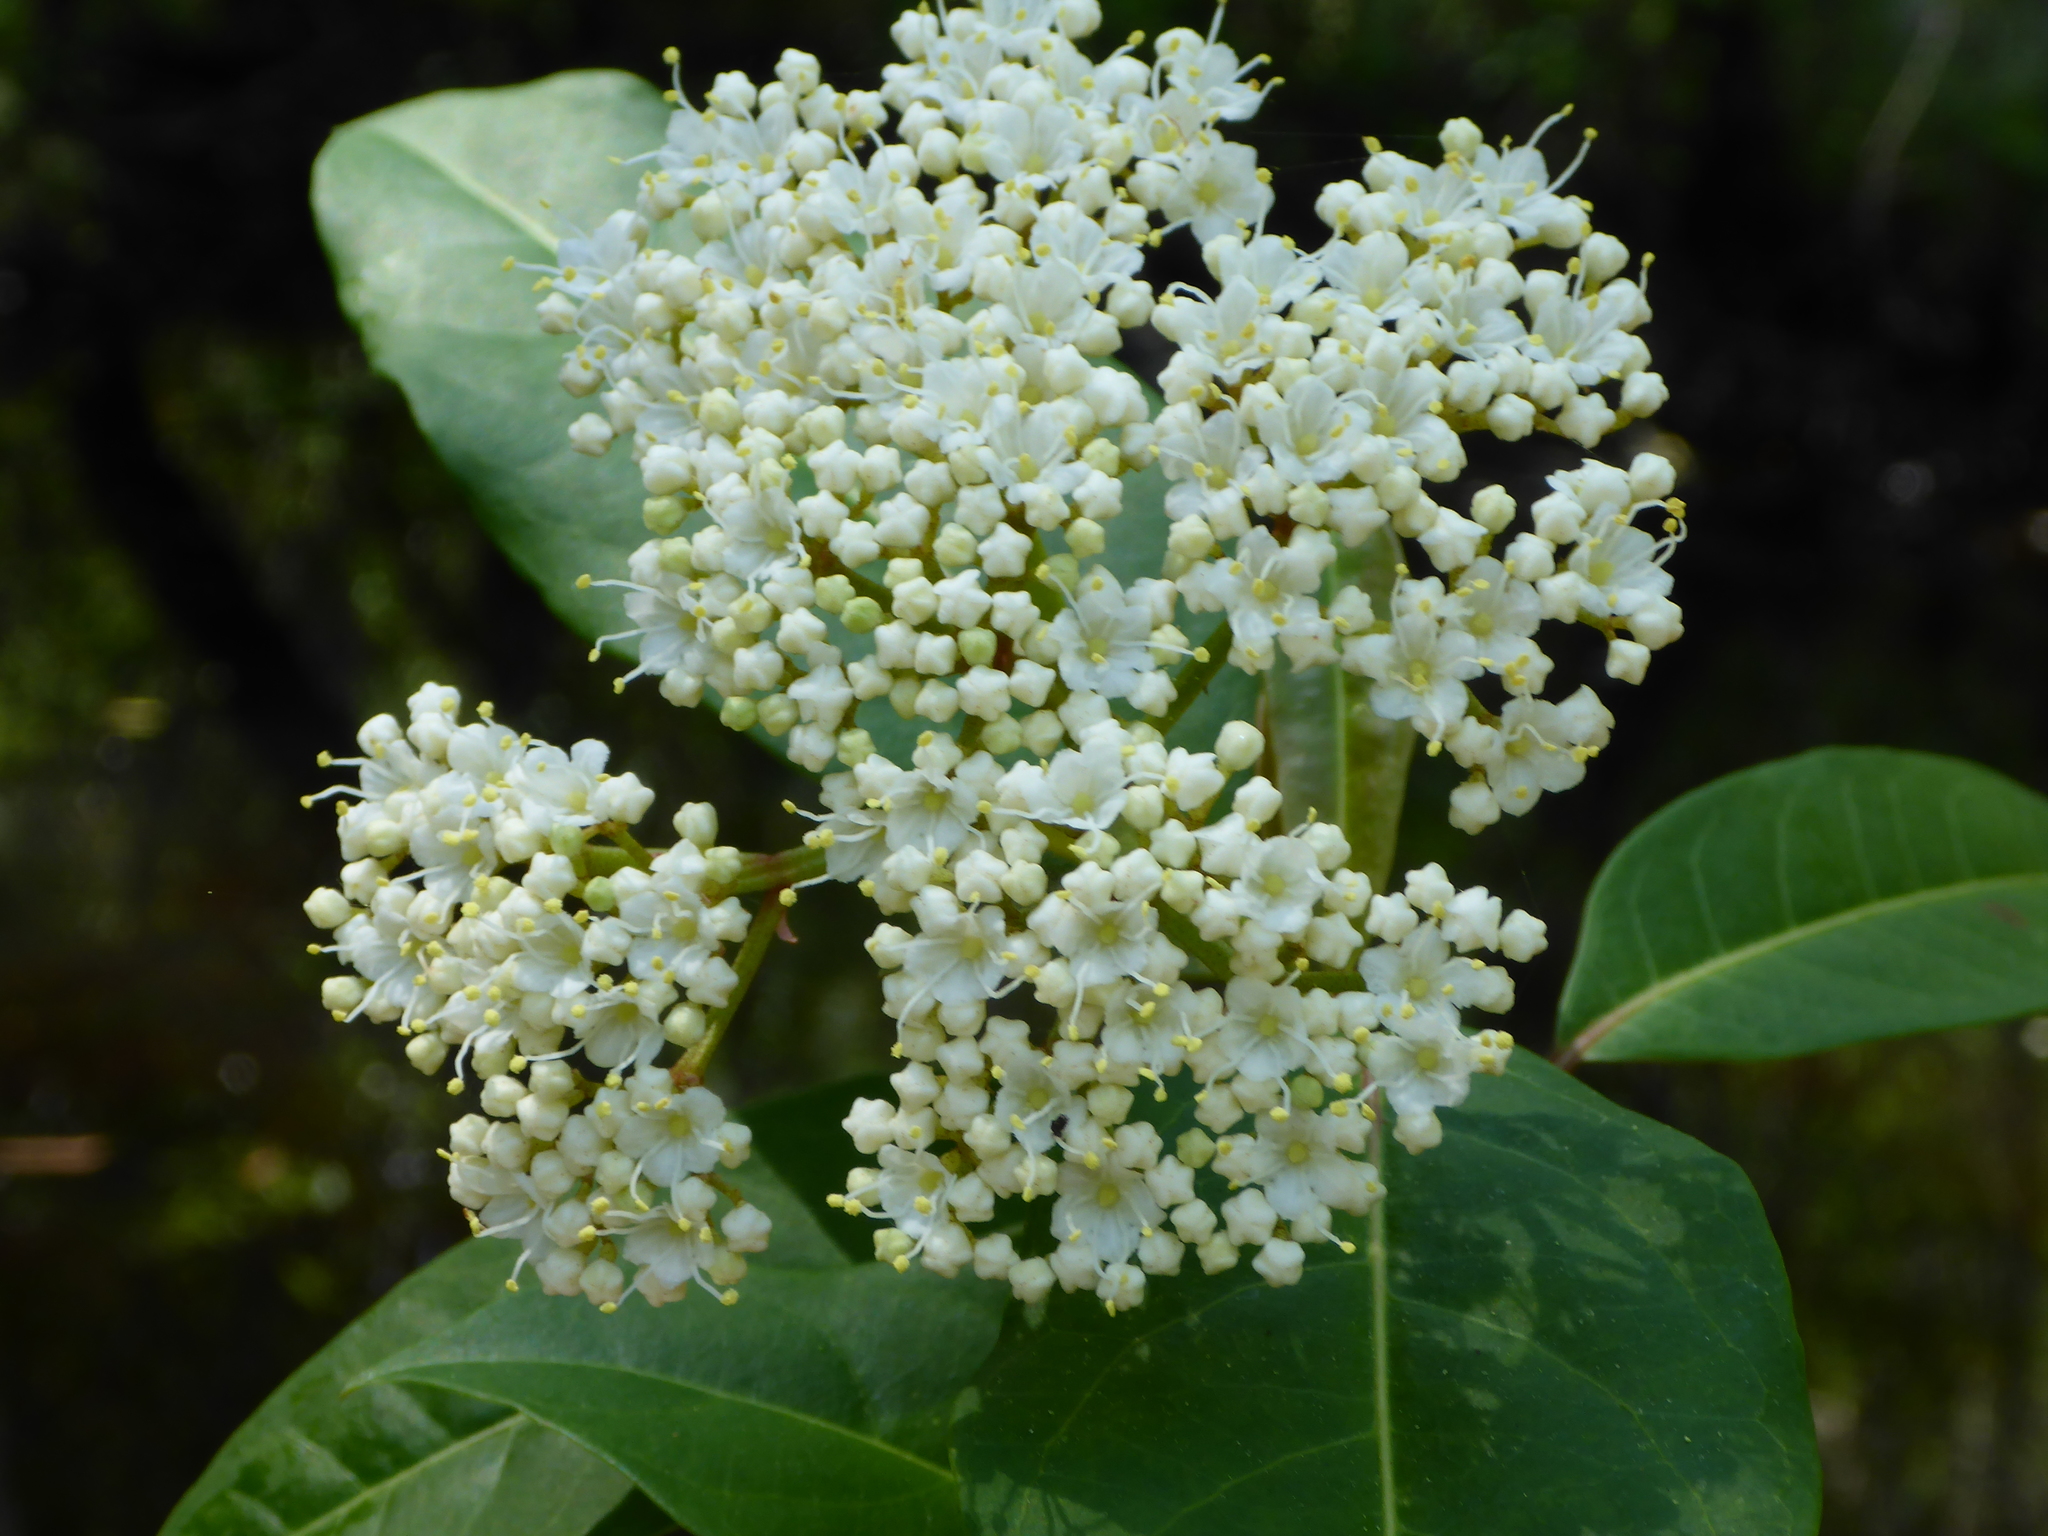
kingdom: Plantae
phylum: Tracheophyta
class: Magnoliopsida
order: Dipsacales
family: Viburnaceae
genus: Viburnum
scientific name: Viburnum nudum
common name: Possum haw
